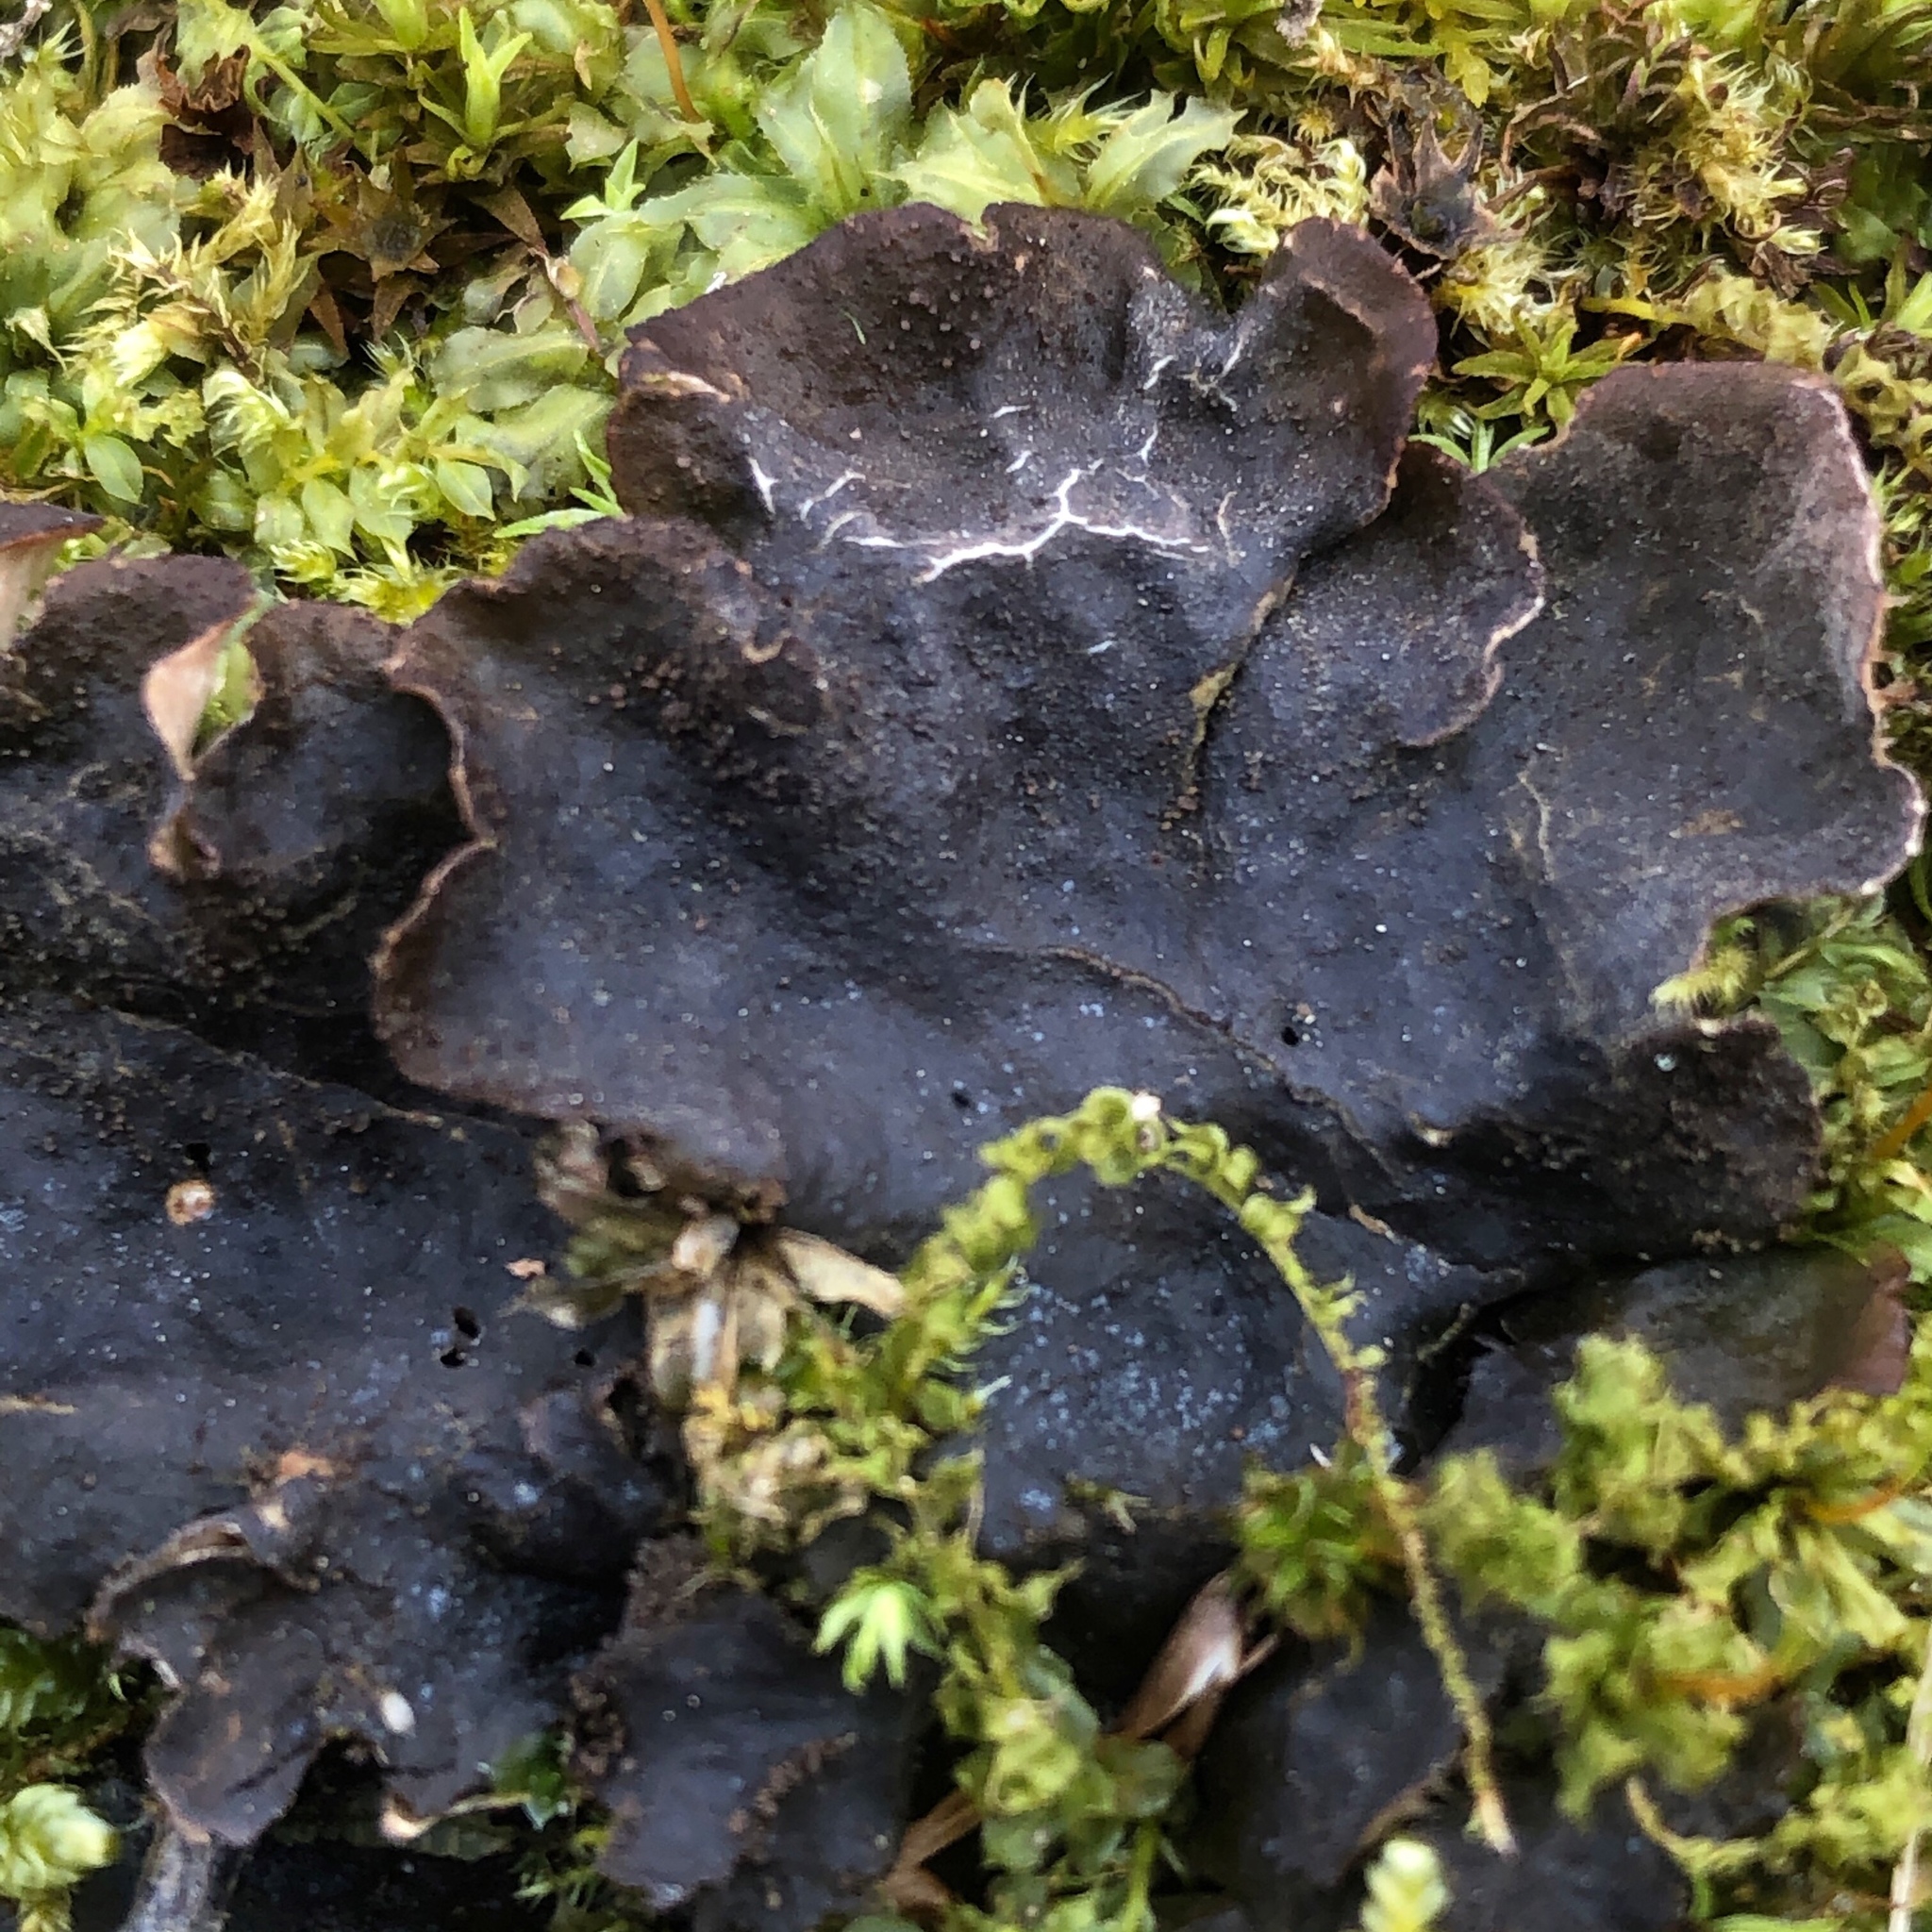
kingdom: Fungi
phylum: Ascomycota
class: Lecanoromycetes
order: Peltigerales
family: Peltigeraceae
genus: Peltigera
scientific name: Peltigera evansiana
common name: Peppered pelt lichen
